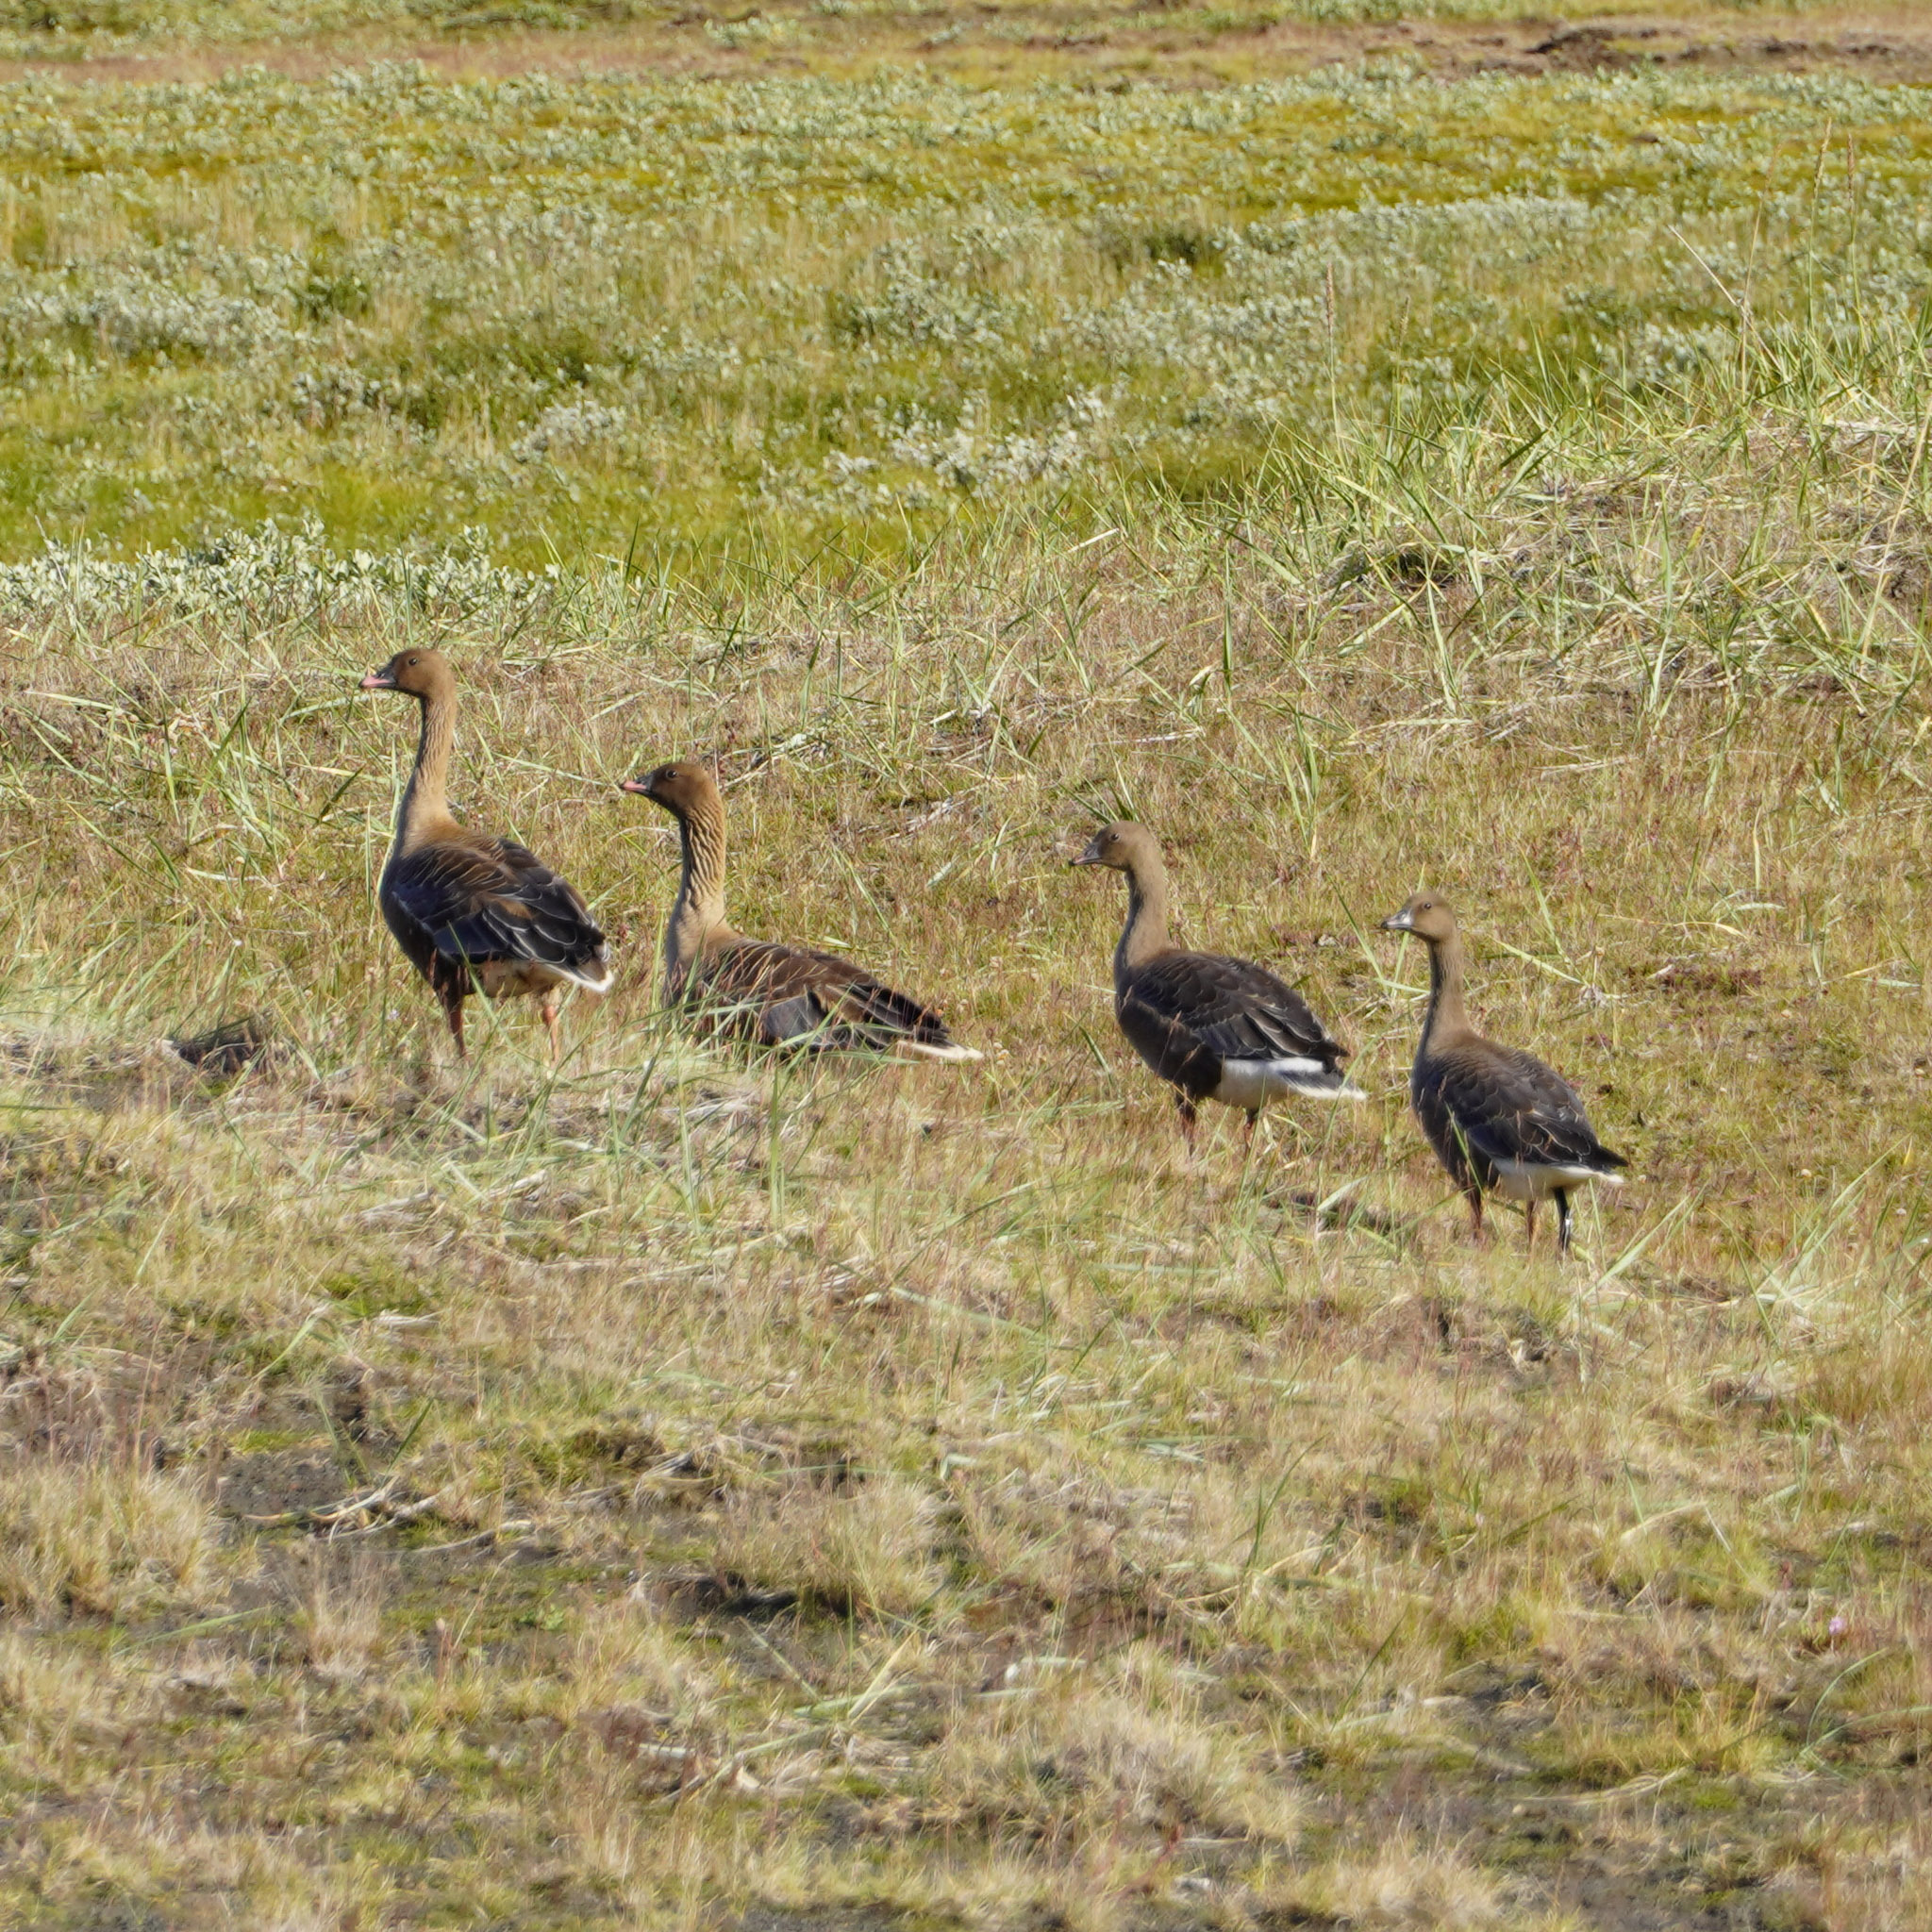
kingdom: Animalia
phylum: Chordata
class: Aves
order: Anseriformes
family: Anatidae
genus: Anser
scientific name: Anser brachyrhynchus
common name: Pink-footed goose
